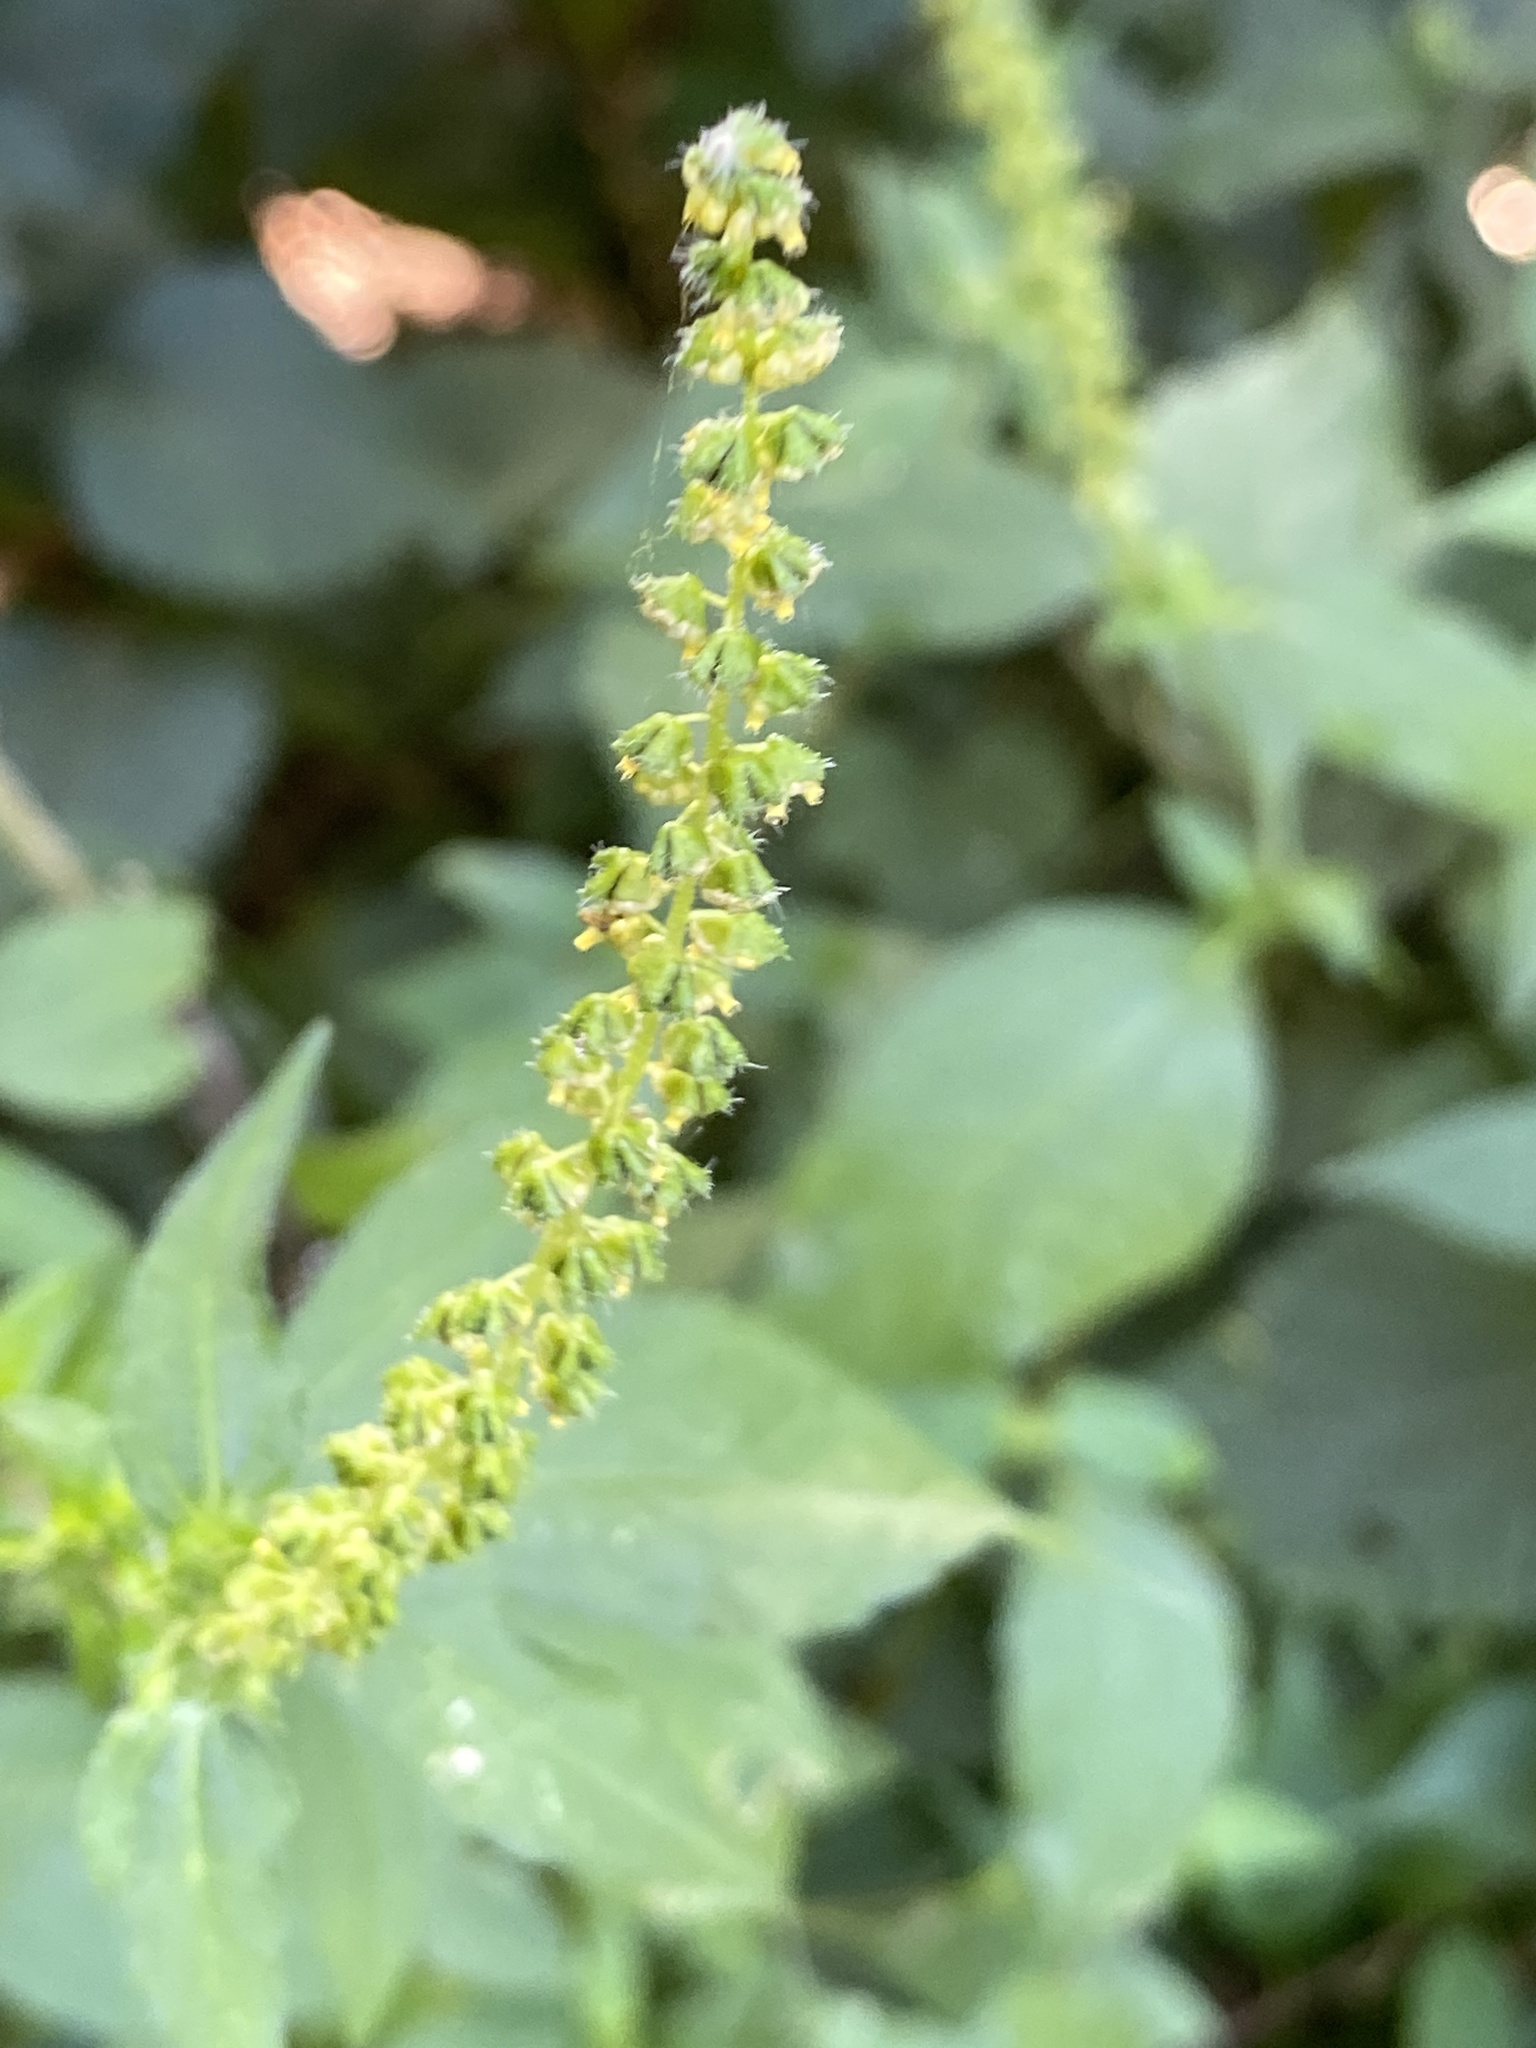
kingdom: Plantae
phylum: Tracheophyta
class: Magnoliopsida
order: Asterales
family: Asteraceae
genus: Ambrosia
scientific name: Ambrosia trifida
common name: Giant ragweed
